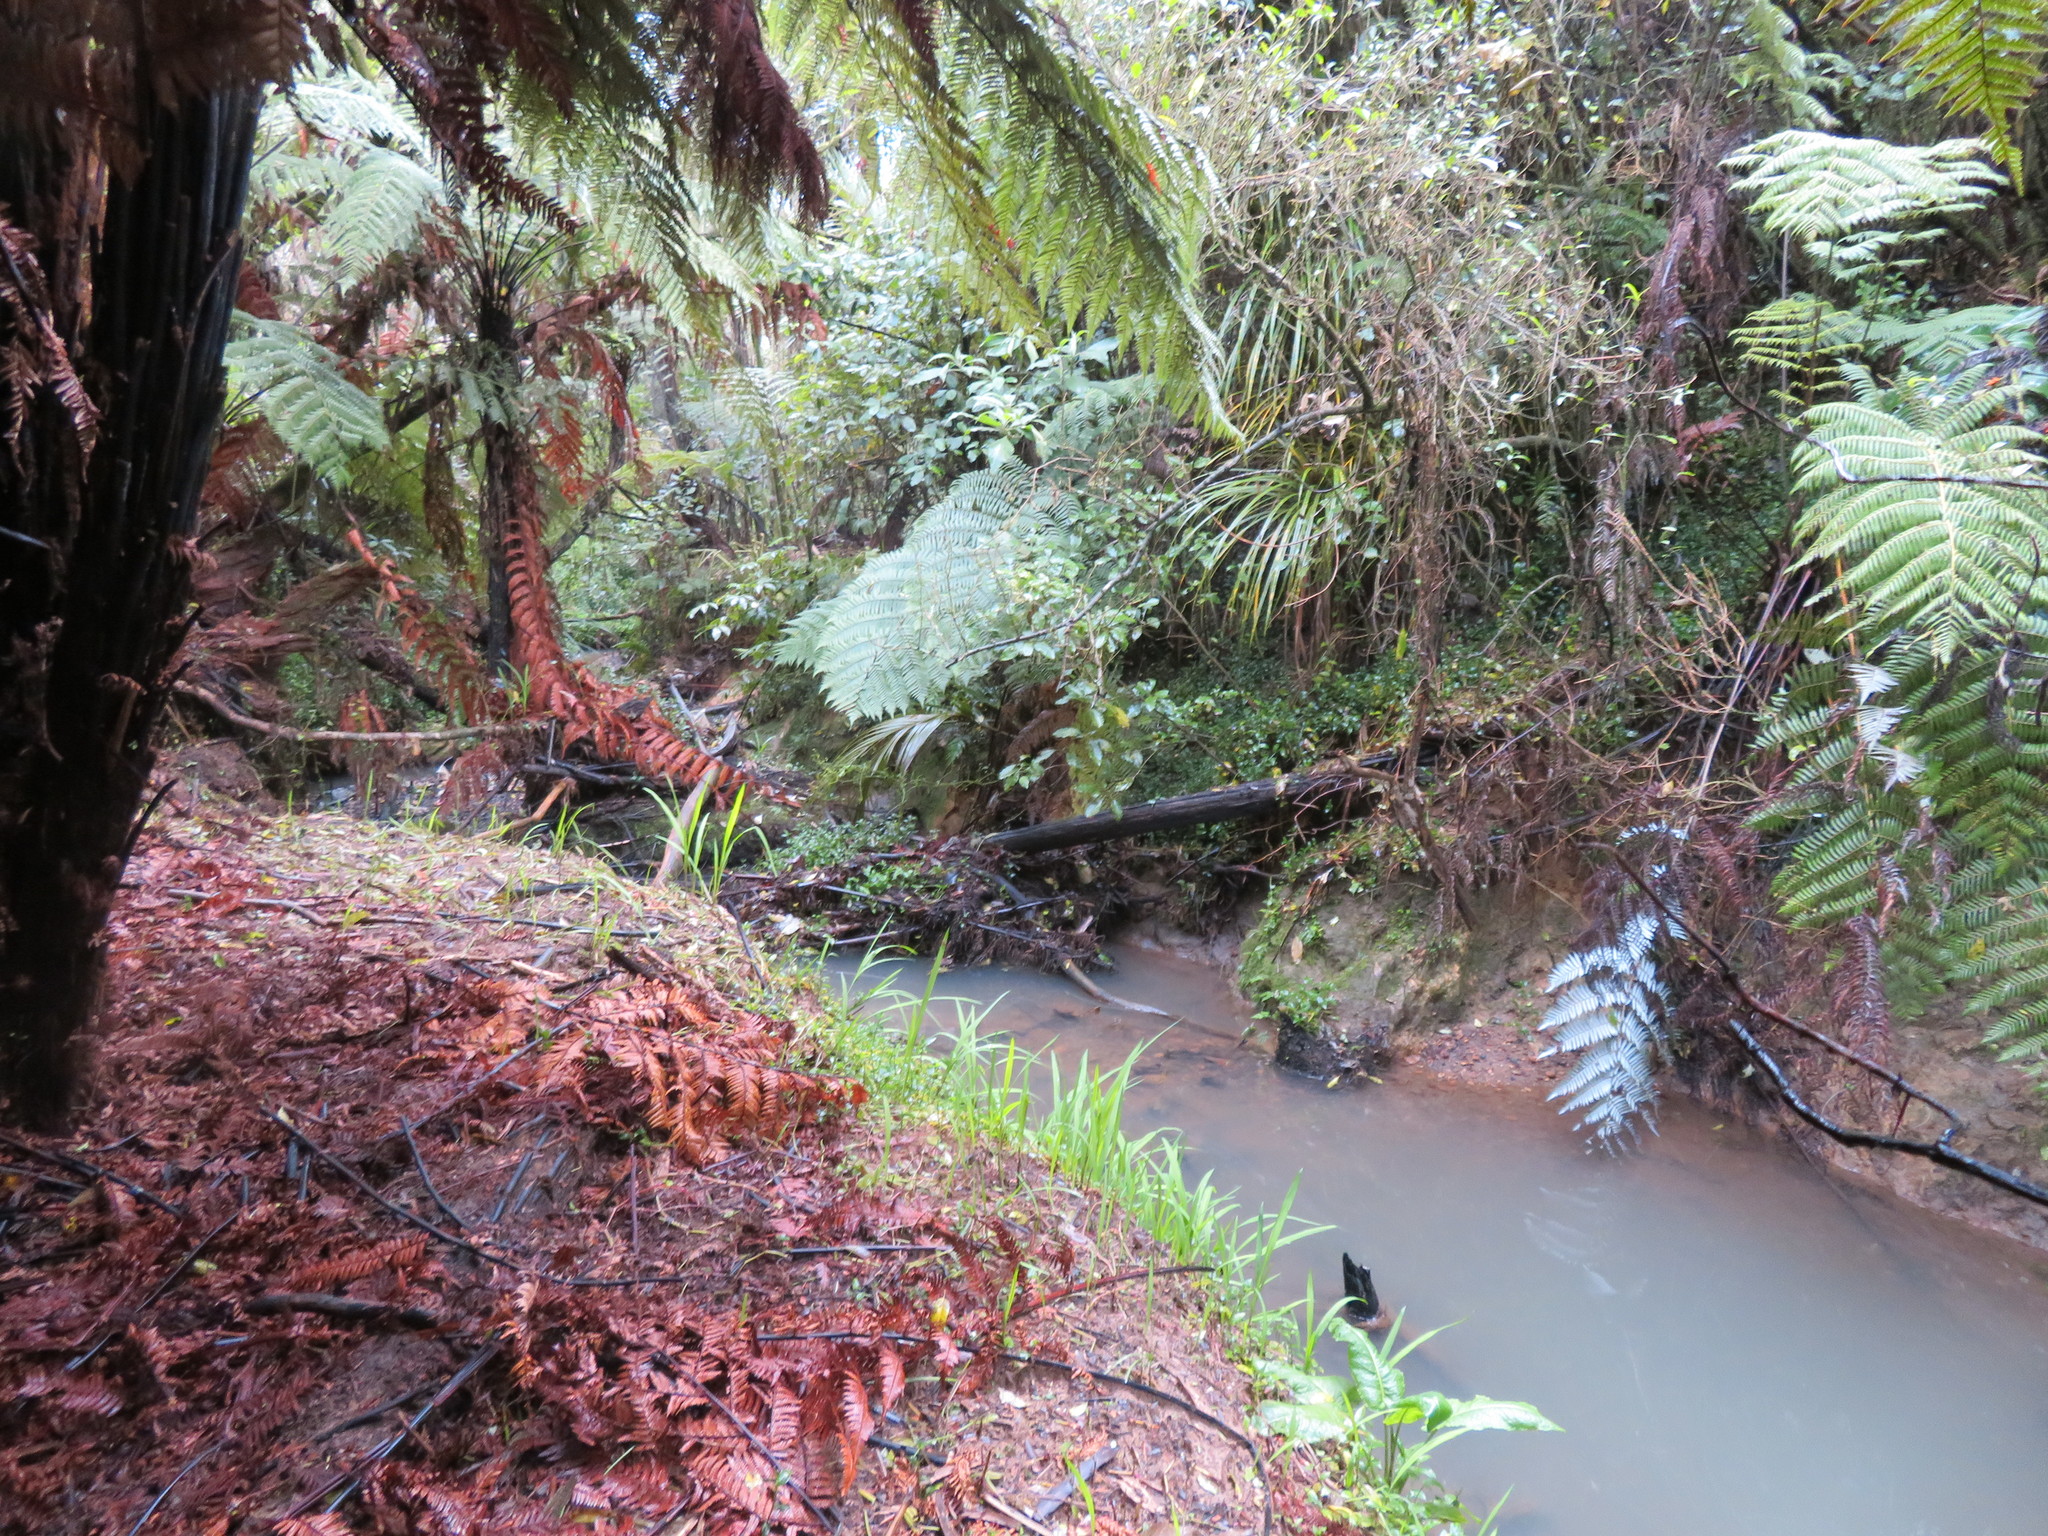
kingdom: Plantae
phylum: Tracheophyta
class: Liliopsida
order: Commelinales
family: Commelinaceae
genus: Tradescantia
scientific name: Tradescantia fluminensis
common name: Wandering-jew
